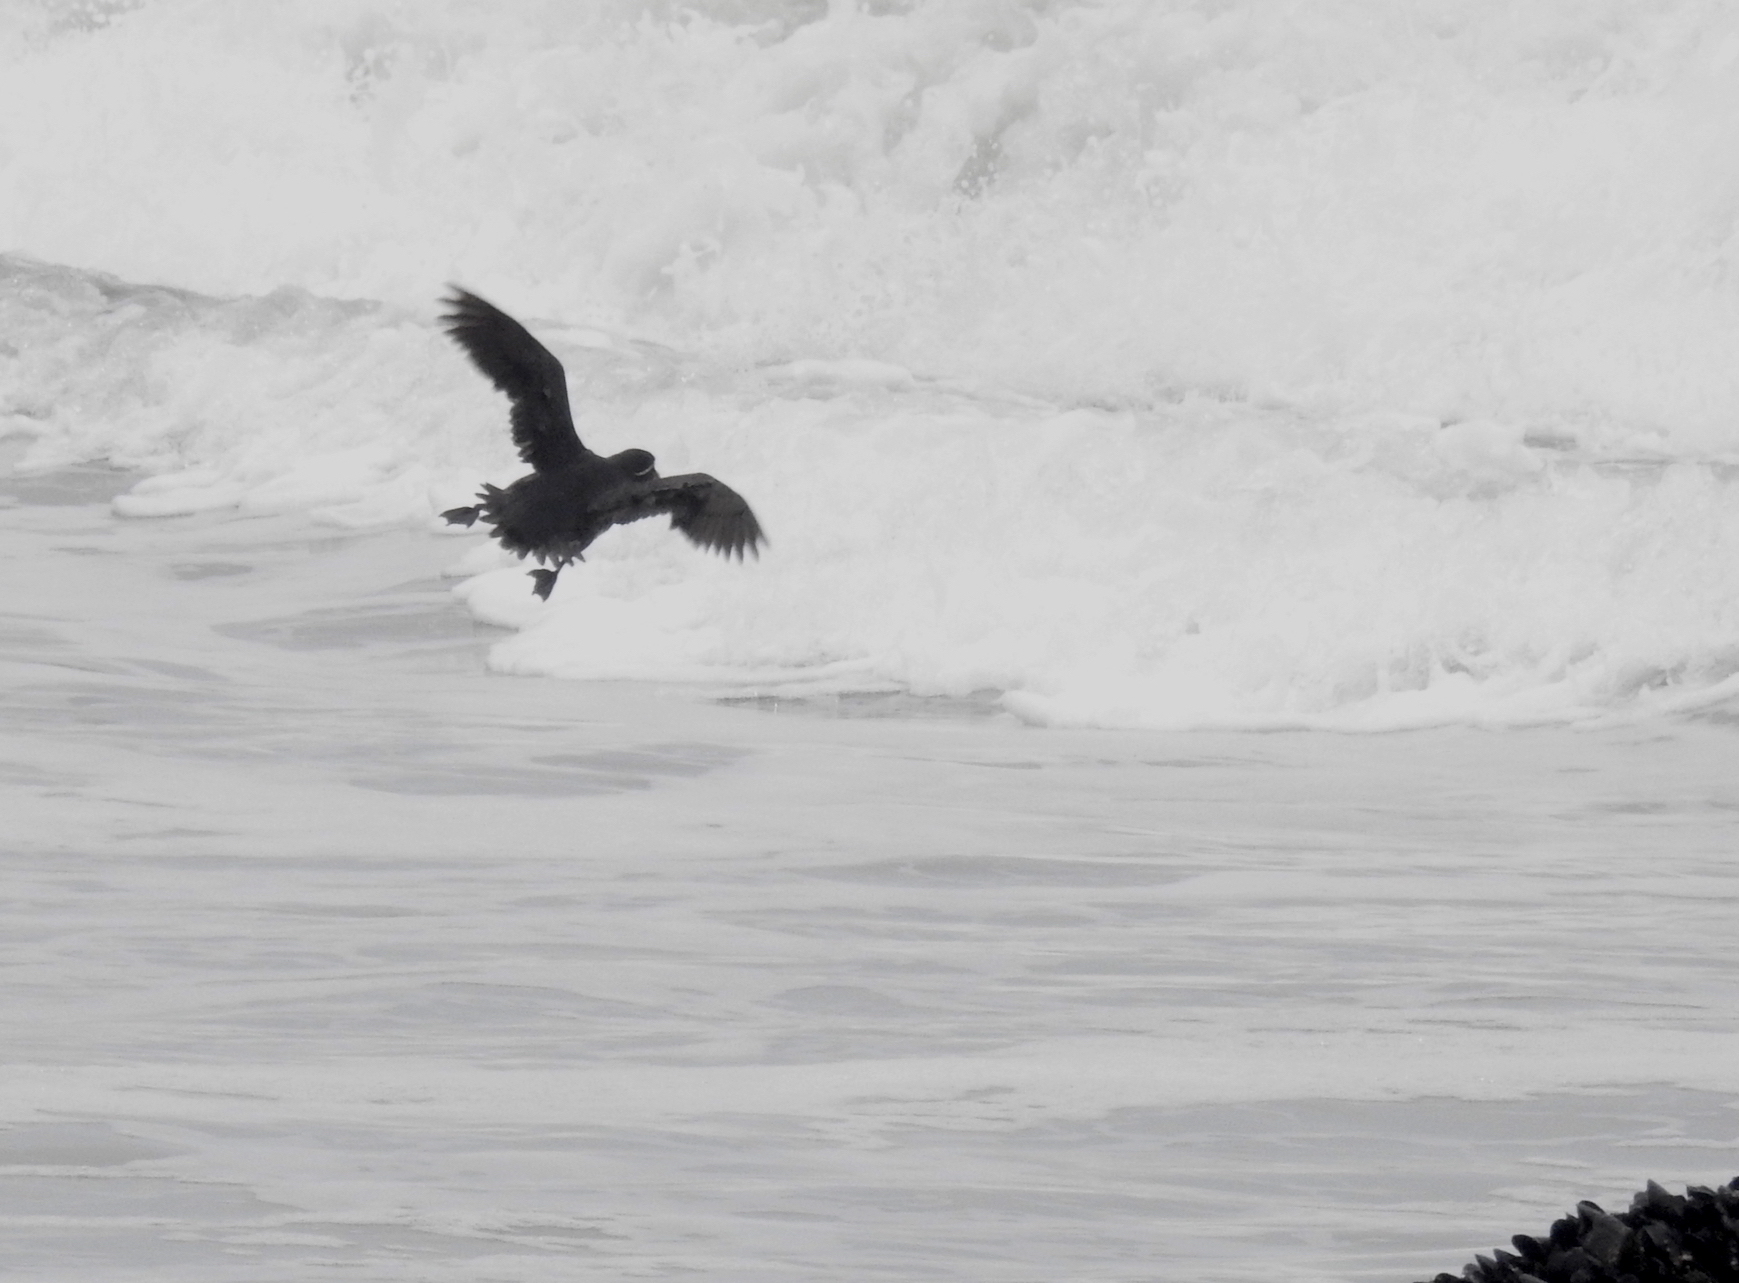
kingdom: Animalia
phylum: Chordata
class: Aves
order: Charadriiformes
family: Alcidae
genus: Aethia
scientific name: Aethia psittacula
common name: Parakeet auklet
